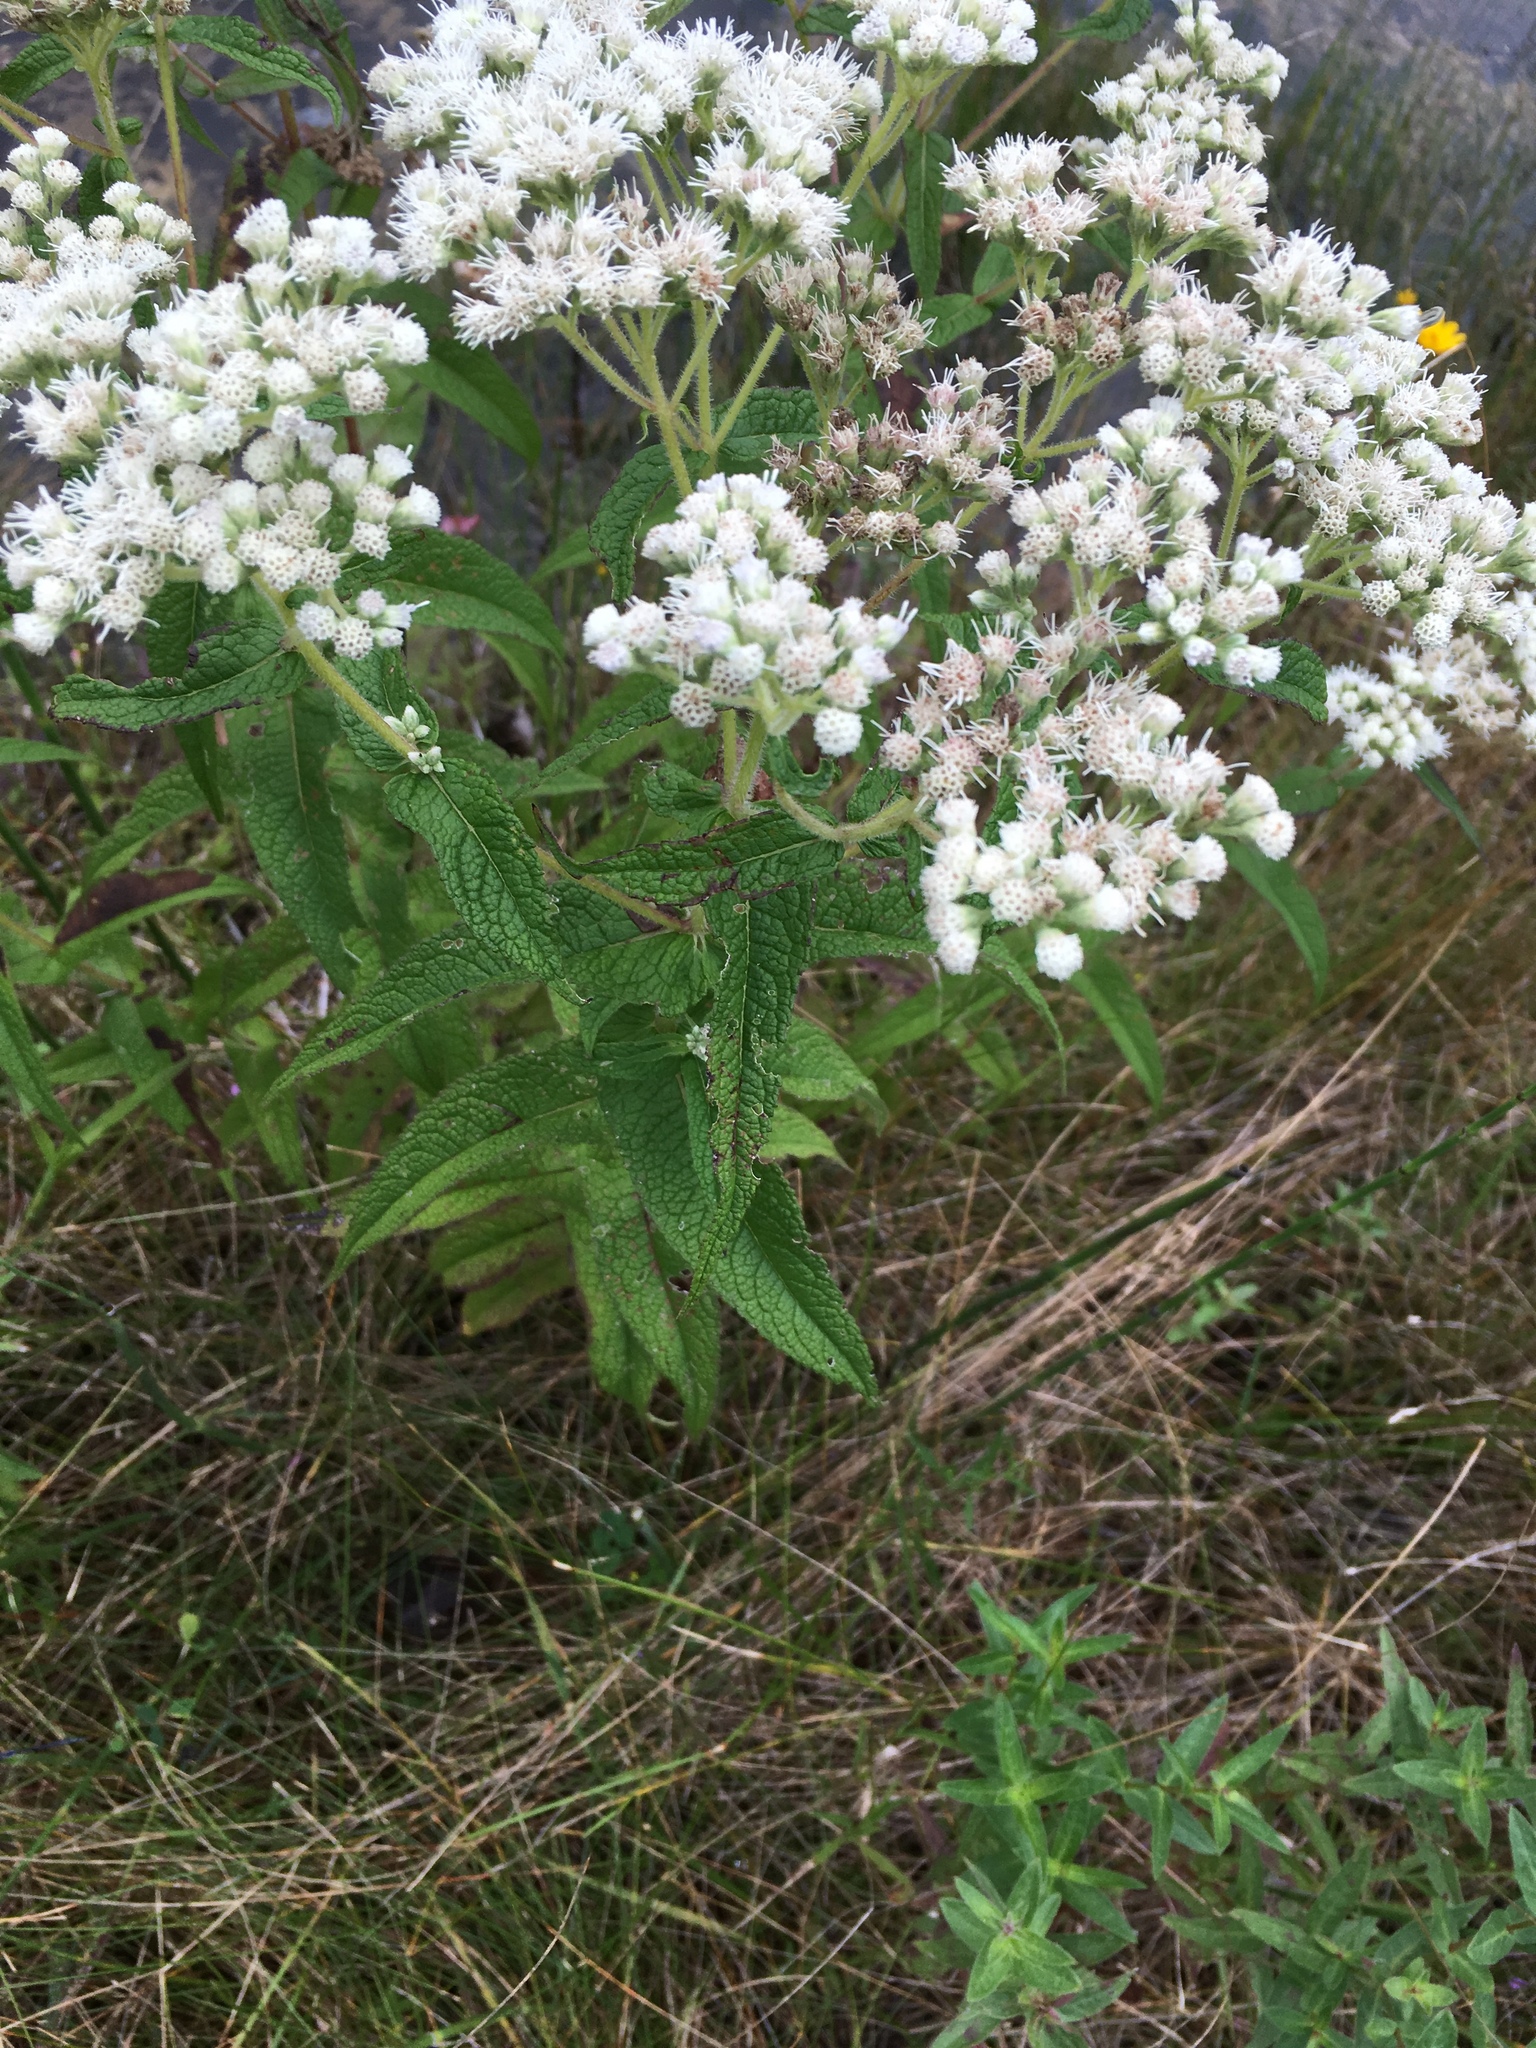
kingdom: Plantae
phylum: Tracheophyta
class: Magnoliopsida
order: Asterales
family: Asteraceae
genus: Eupatorium
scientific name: Eupatorium perfoliatum
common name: Boneset
